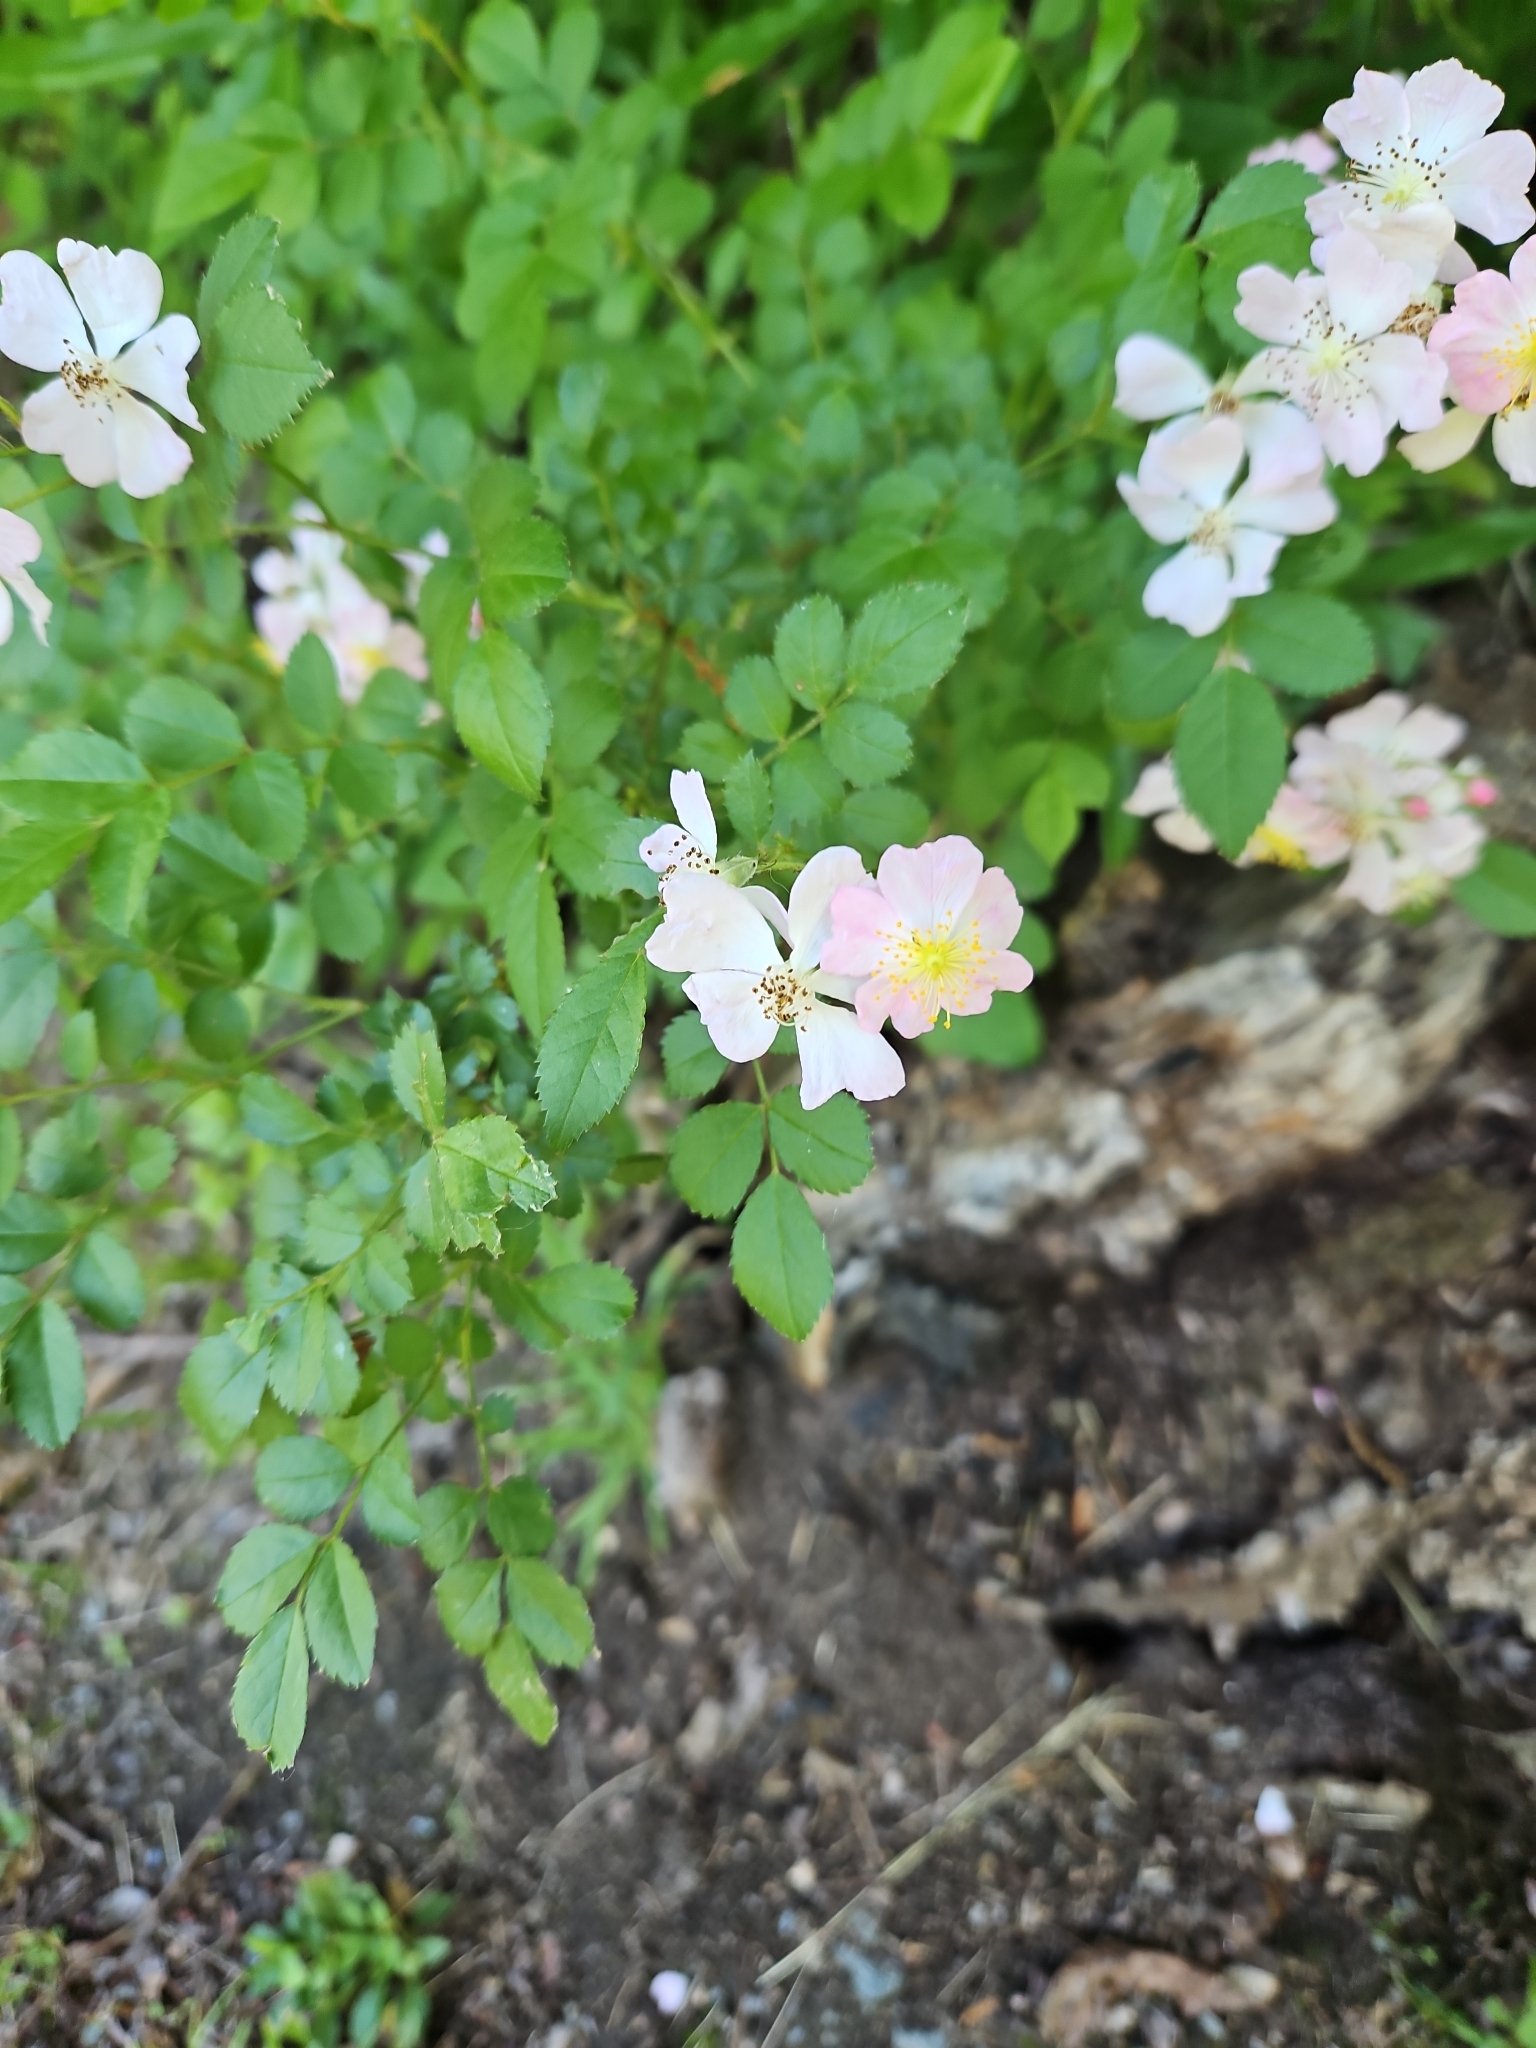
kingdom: Plantae
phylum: Tracheophyta
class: Magnoliopsida
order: Rosales
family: Rosaceae
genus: Rosa
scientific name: Rosa multiflora
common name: Multiflora rose
